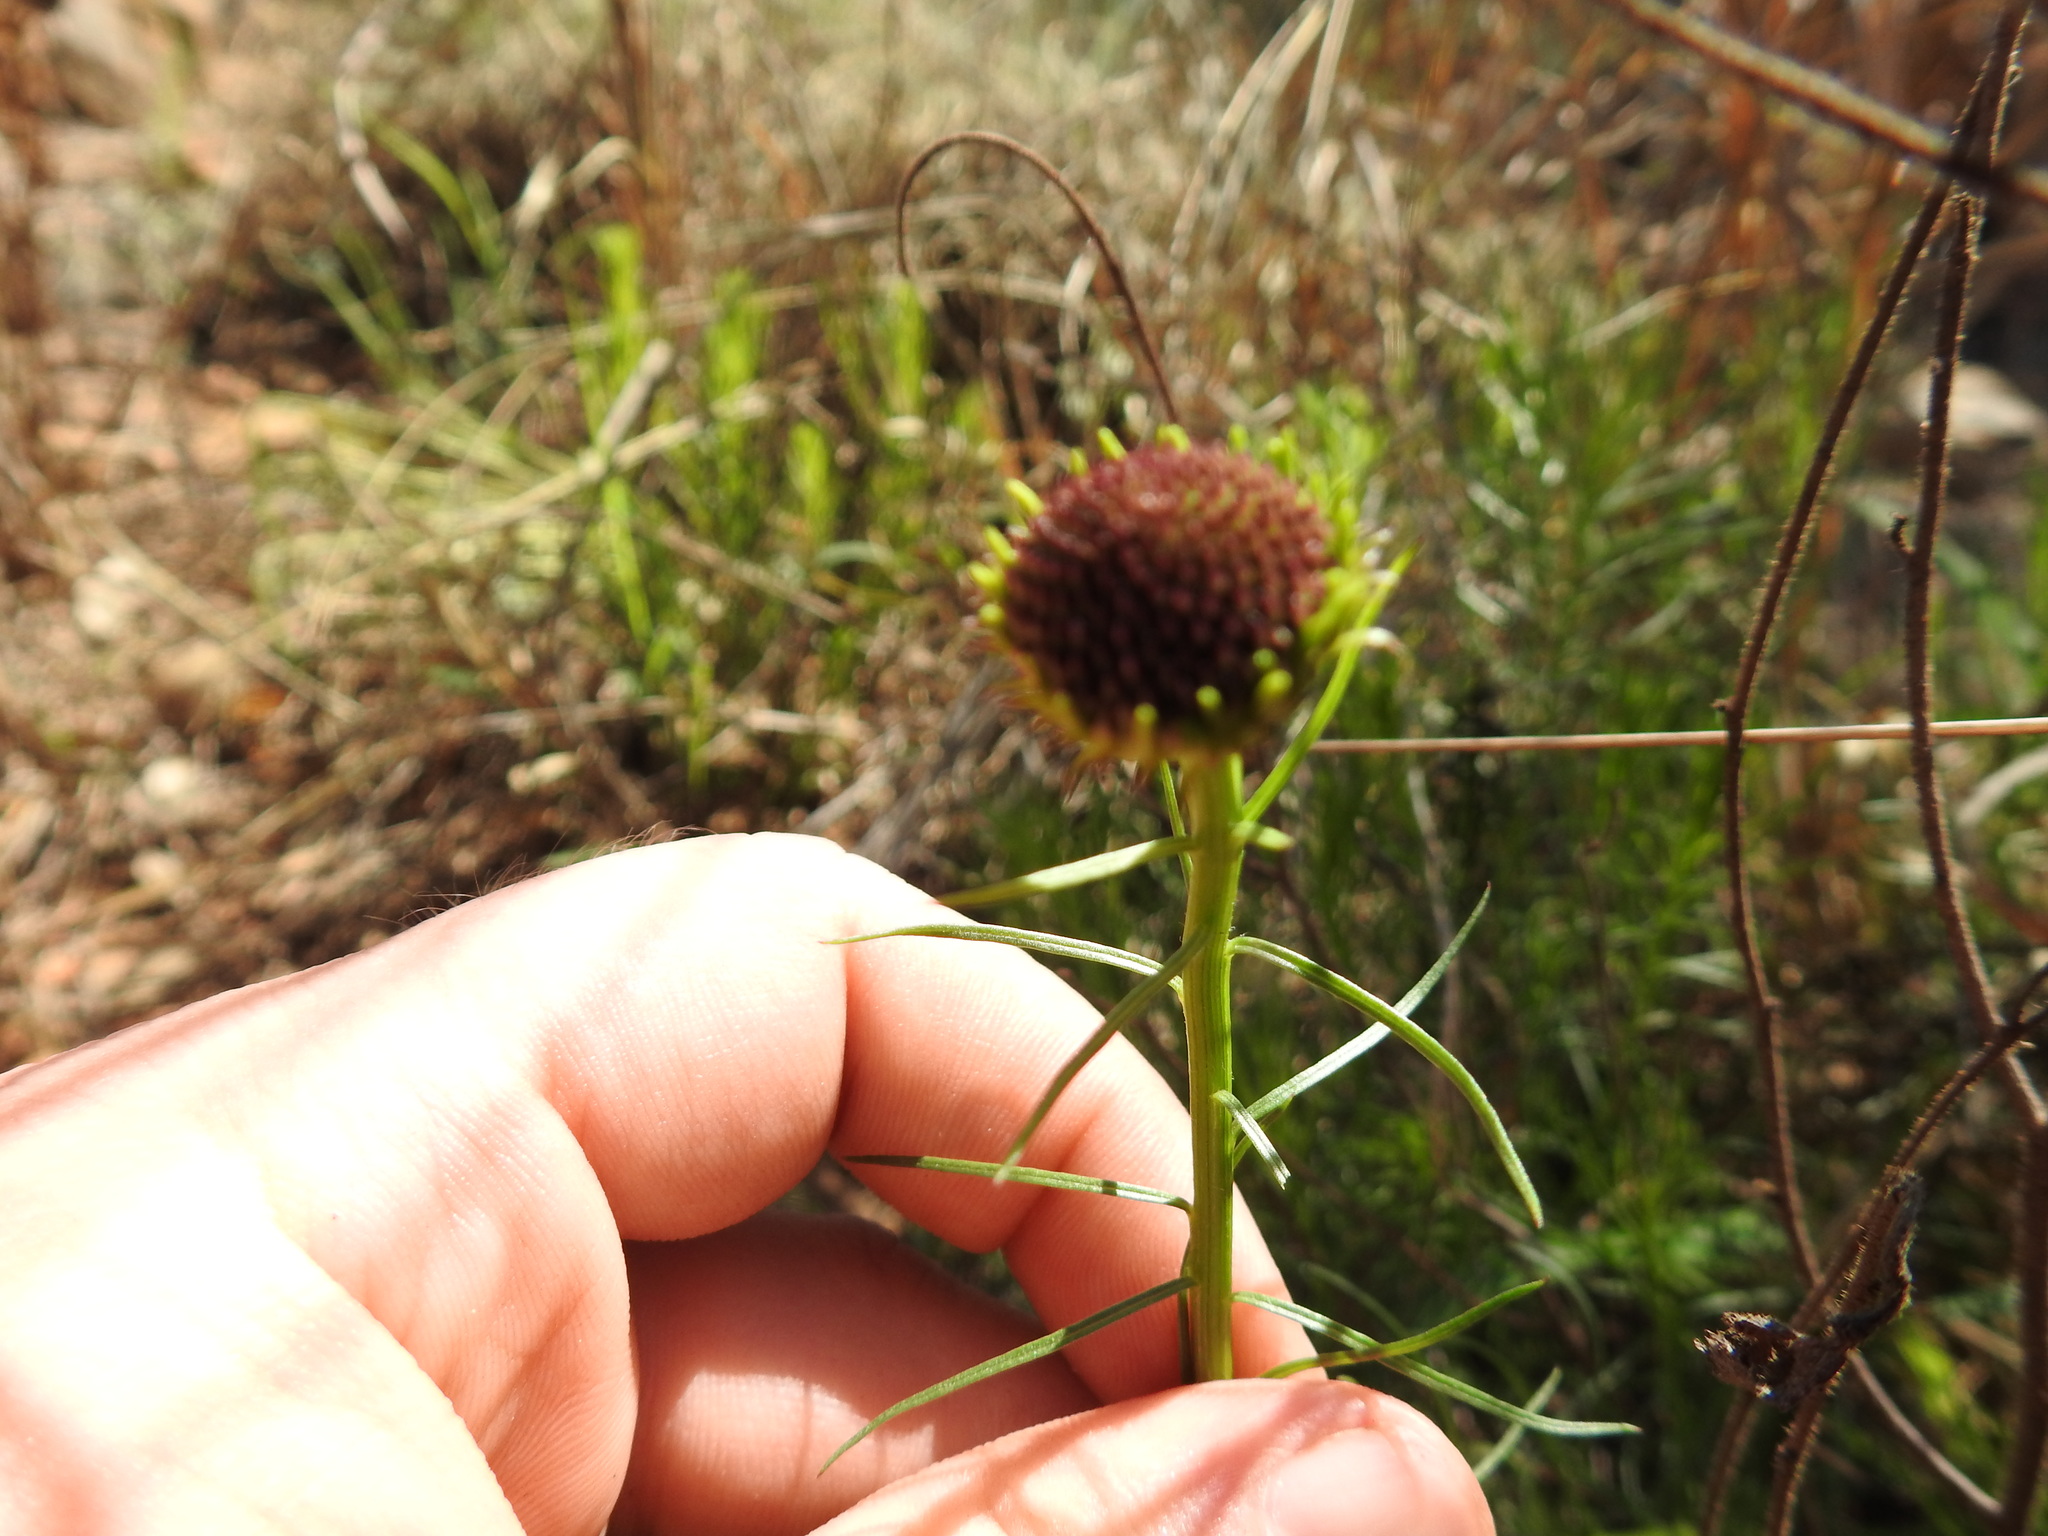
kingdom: Plantae
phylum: Tracheophyta
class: Magnoliopsida
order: Asterales
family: Asteraceae
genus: Callilepis
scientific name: Callilepis leptophylla
